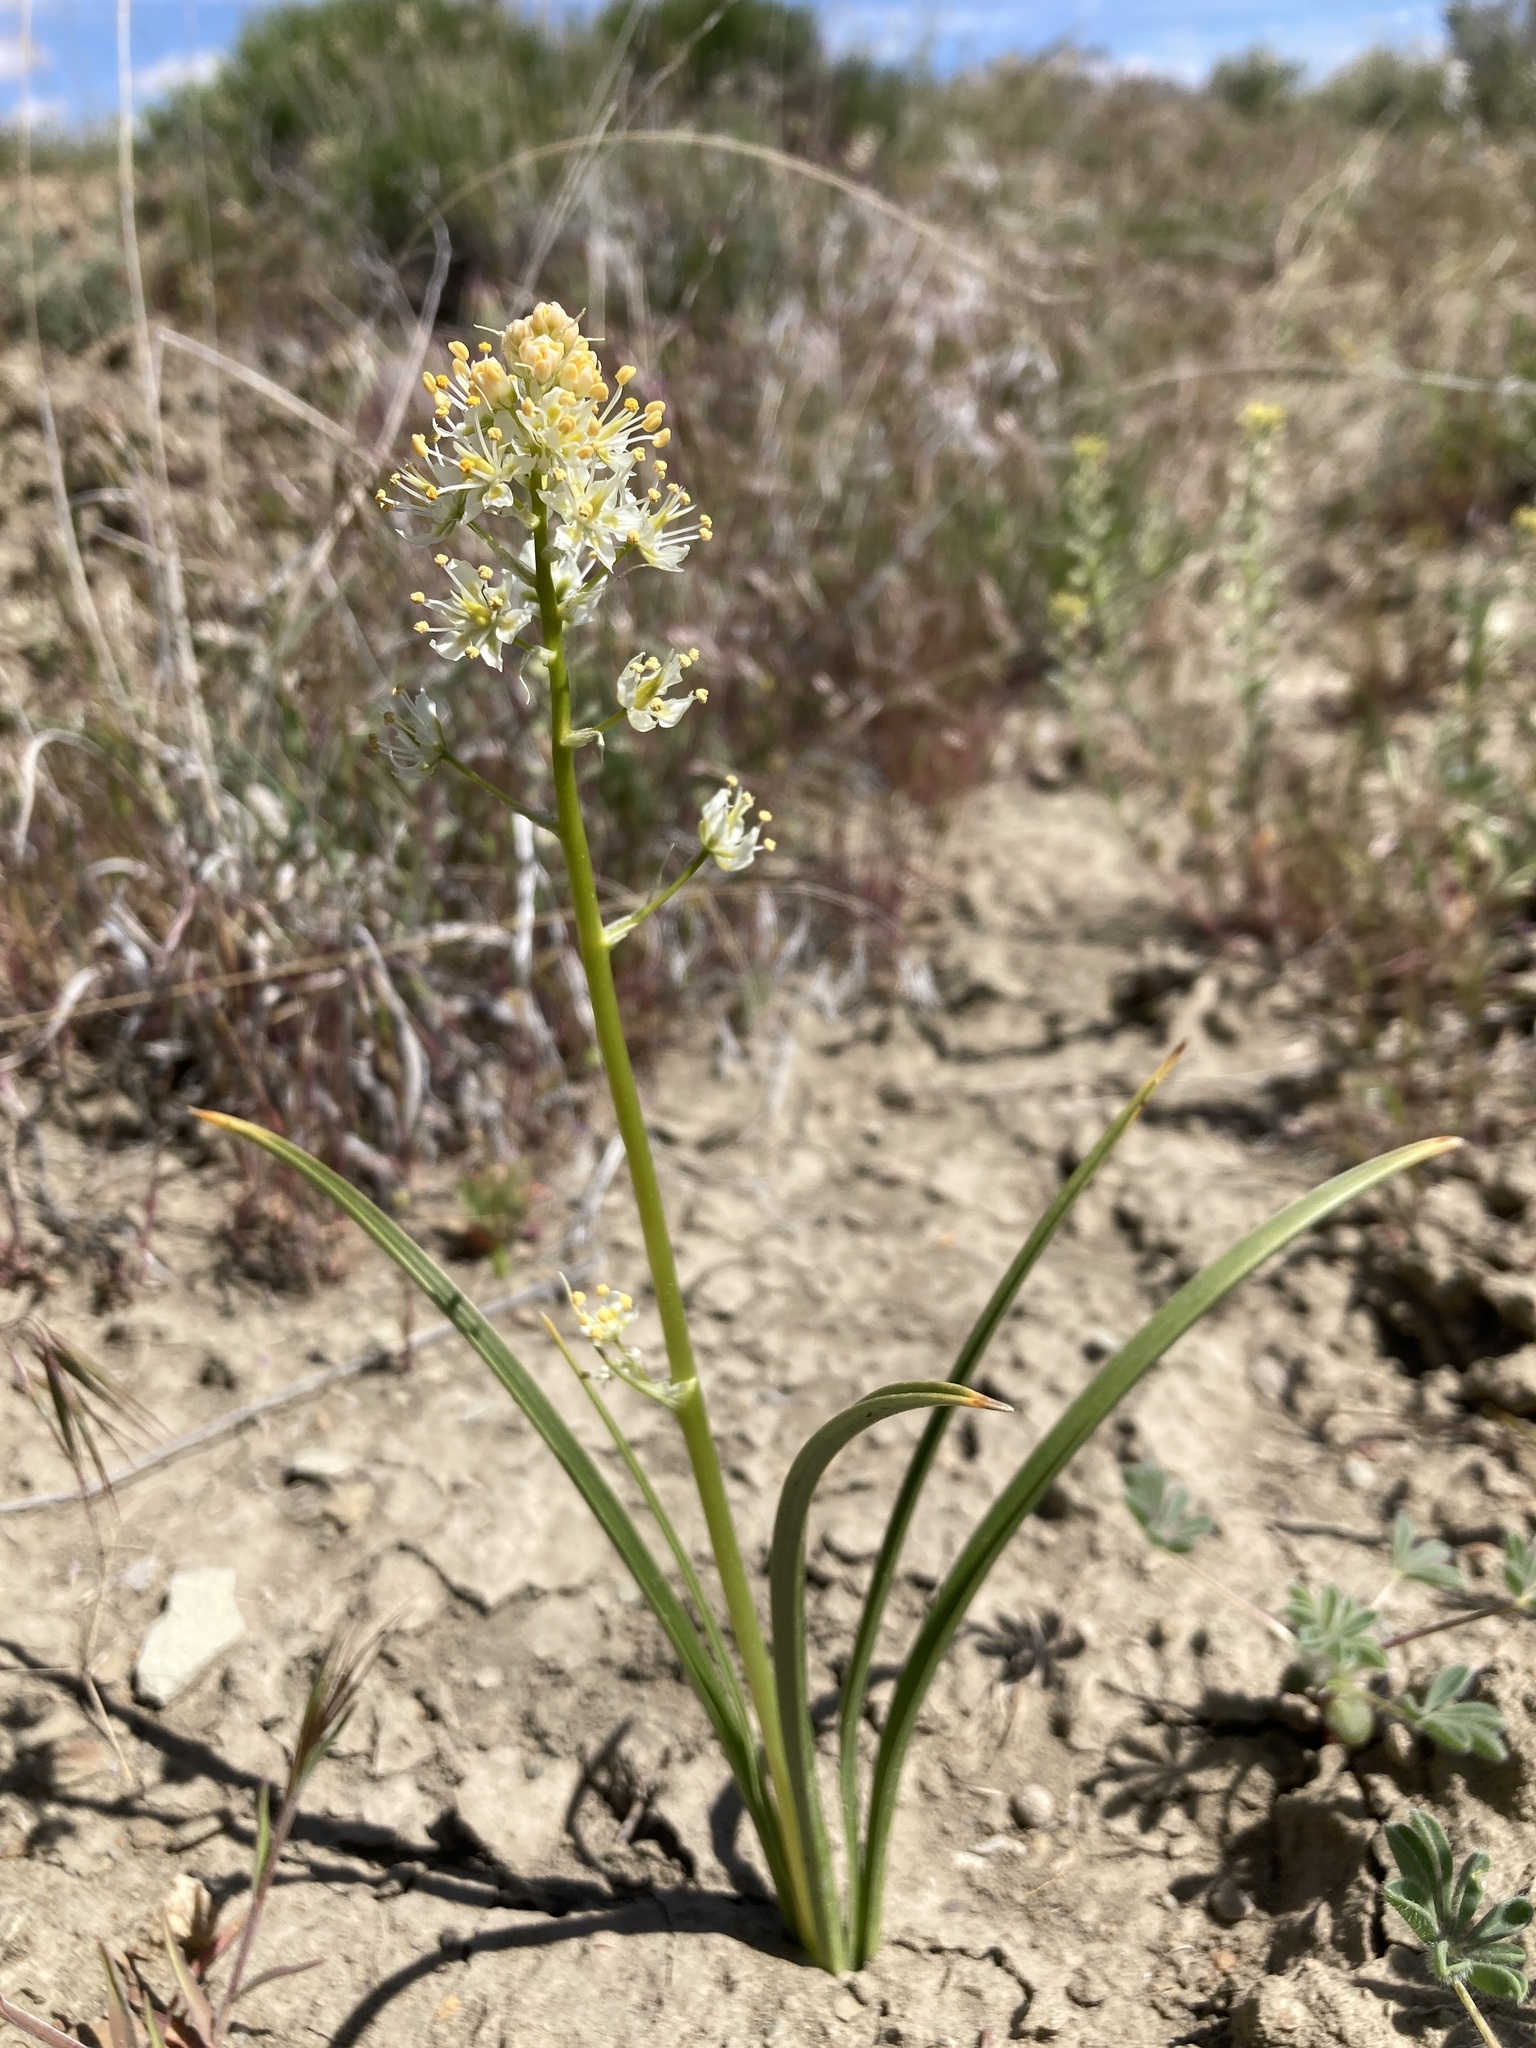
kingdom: Plantae
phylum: Tracheophyta
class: Liliopsida
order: Liliales
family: Melanthiaceae
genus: Toxicoscordion
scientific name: Toxicoscordion venenosum
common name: Meadow death camas
